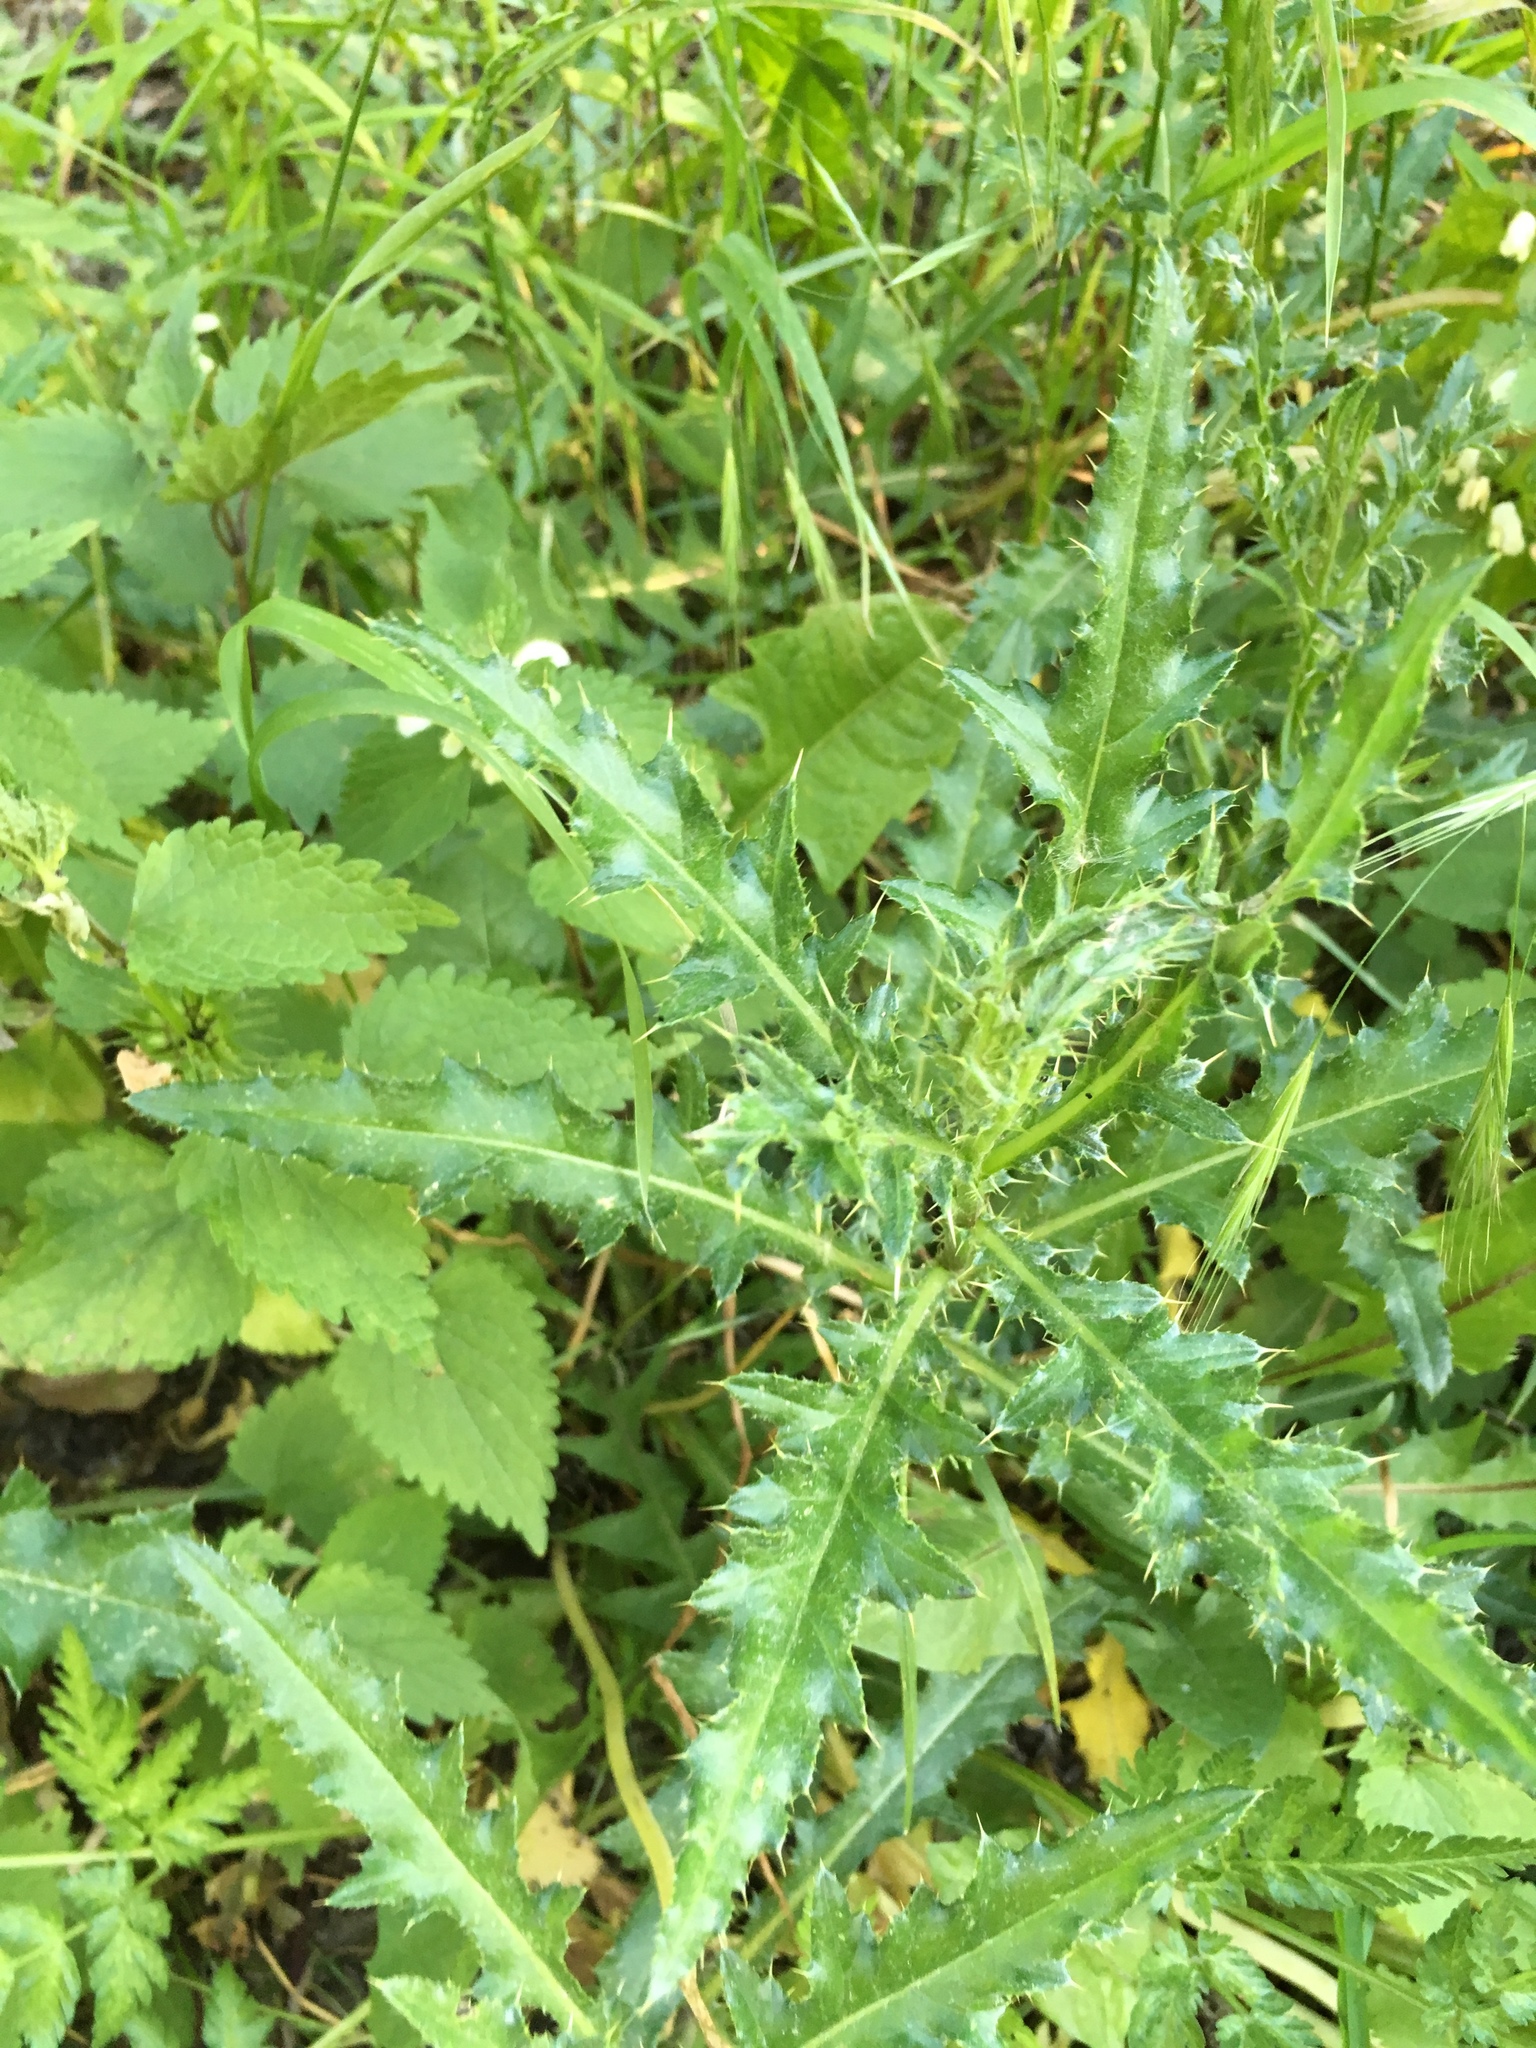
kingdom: Plantae
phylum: Tracheophyta
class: Magnoliopsida
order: Asterales
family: Asteraceae
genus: Cirsium
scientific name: Cirsium arvense
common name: Creeping thistle
